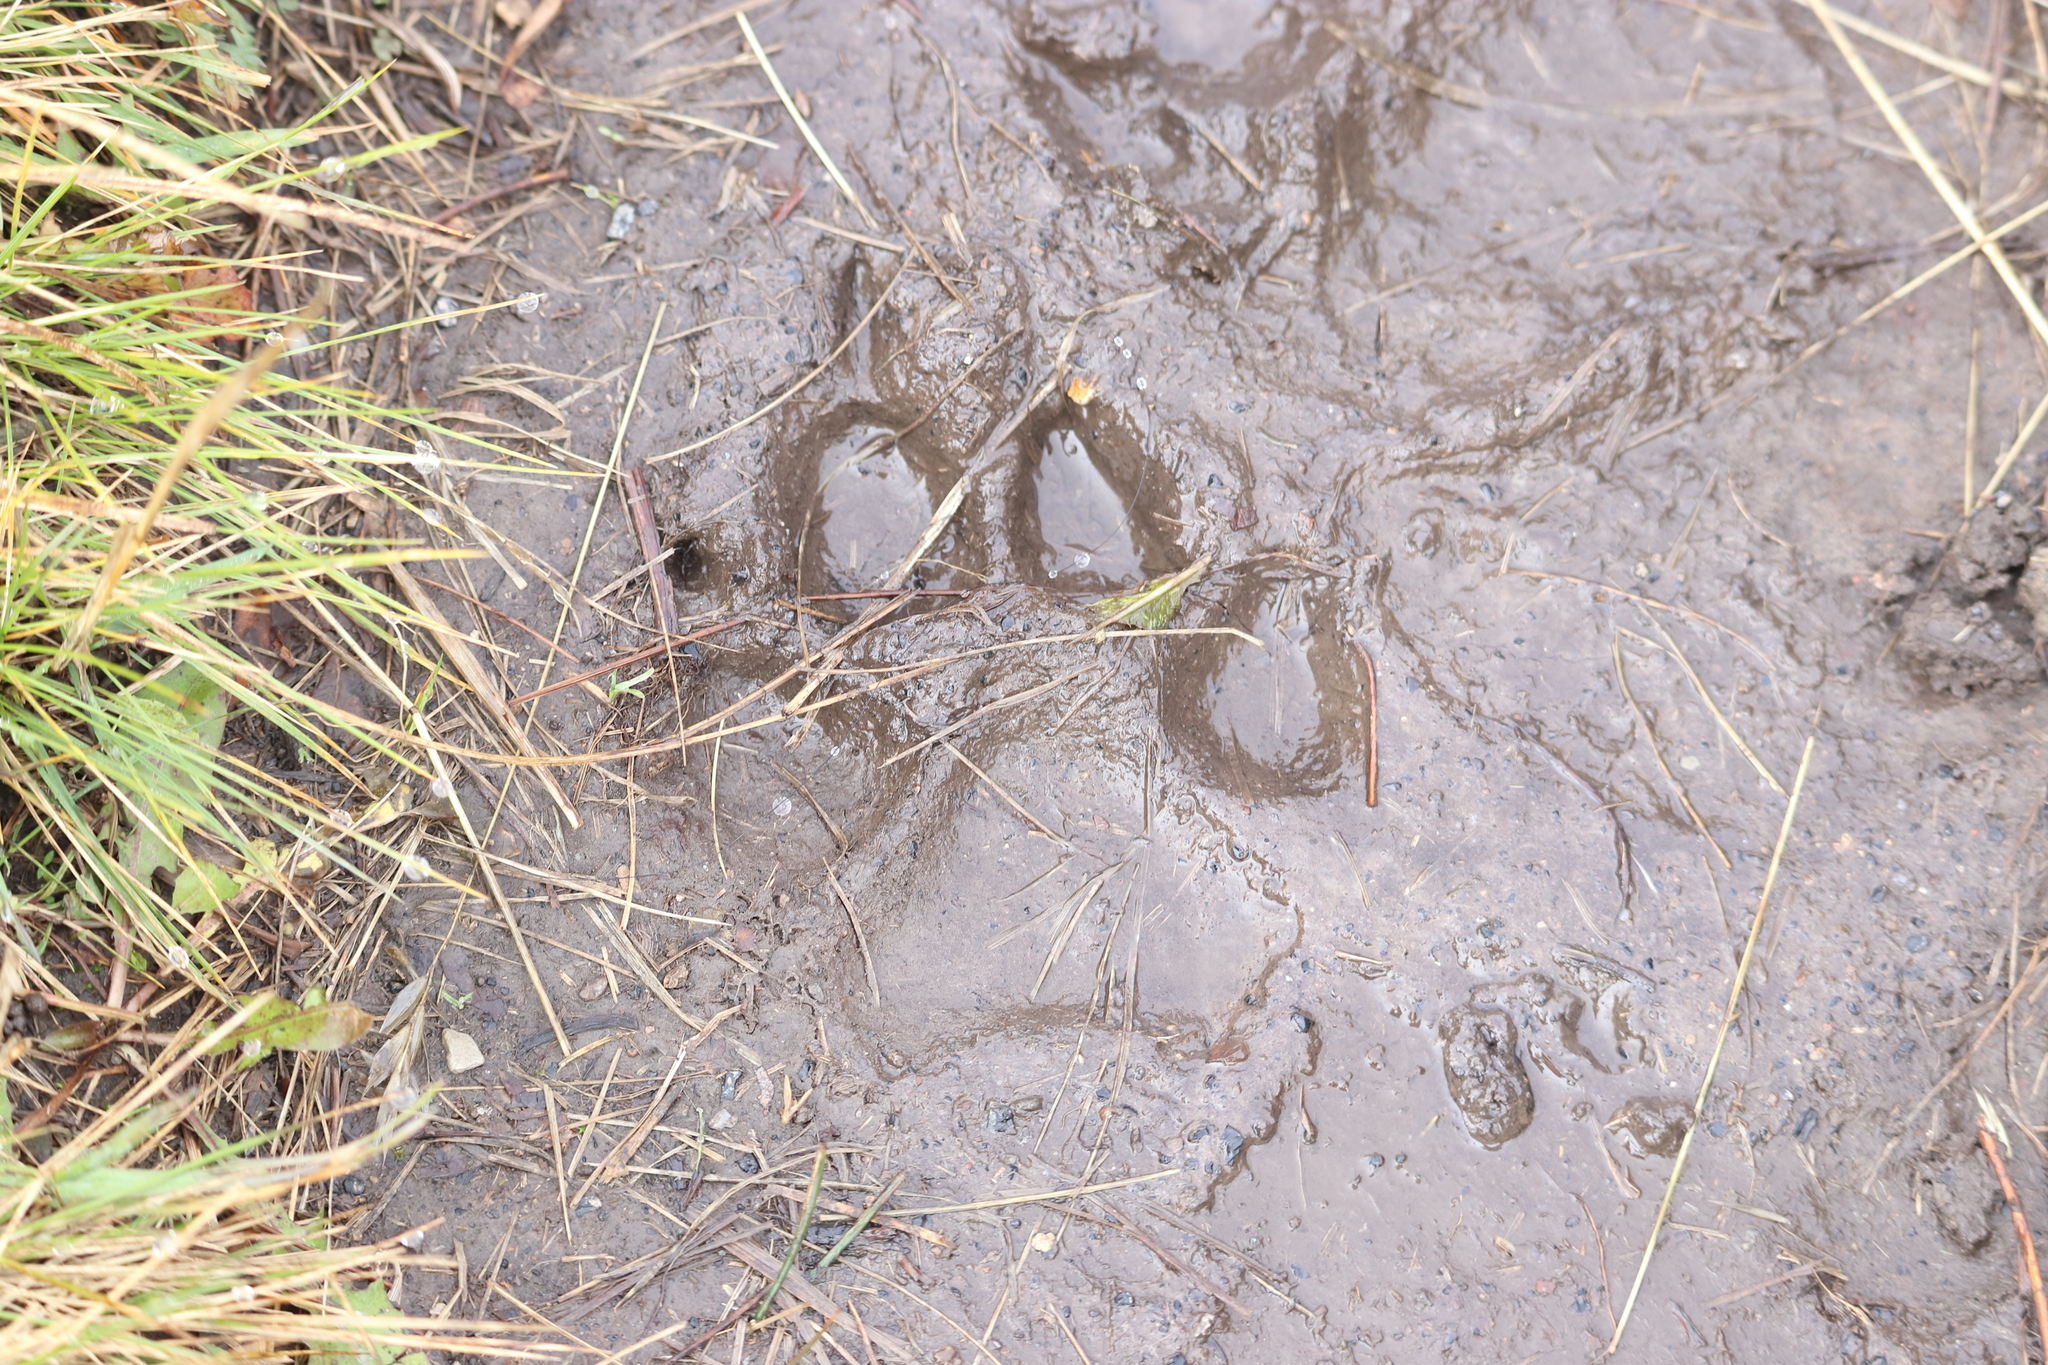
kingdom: Animalia
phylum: Chordata
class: Mammalia
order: Carnivora
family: Canidae
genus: Canis
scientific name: Canis lupus
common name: Gray wolf
